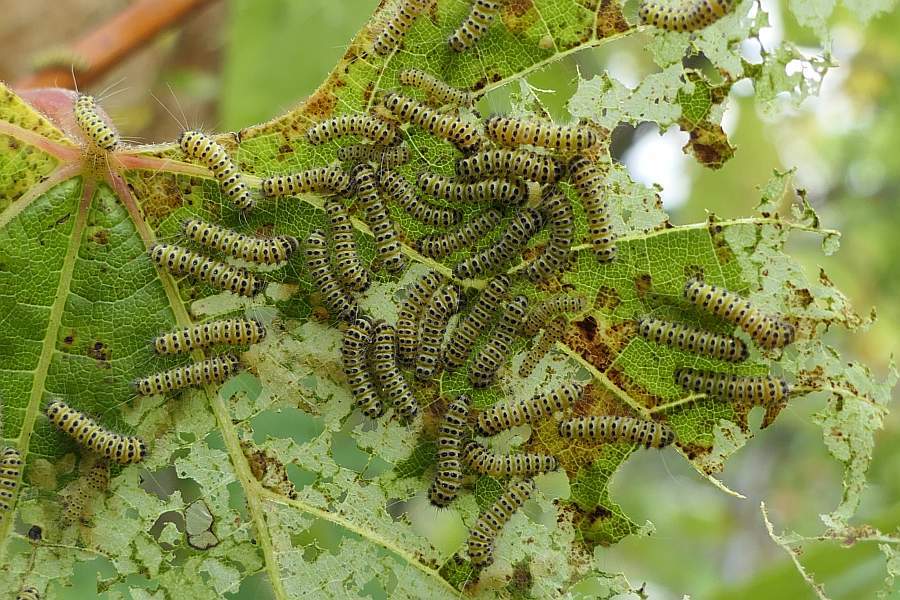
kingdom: Animalia
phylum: Arthropoda
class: Insecta
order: Lepidoptera
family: Zygaenidae
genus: Harrisina
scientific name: Harrisina americana
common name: Grapeleaf skeletonizer moth
